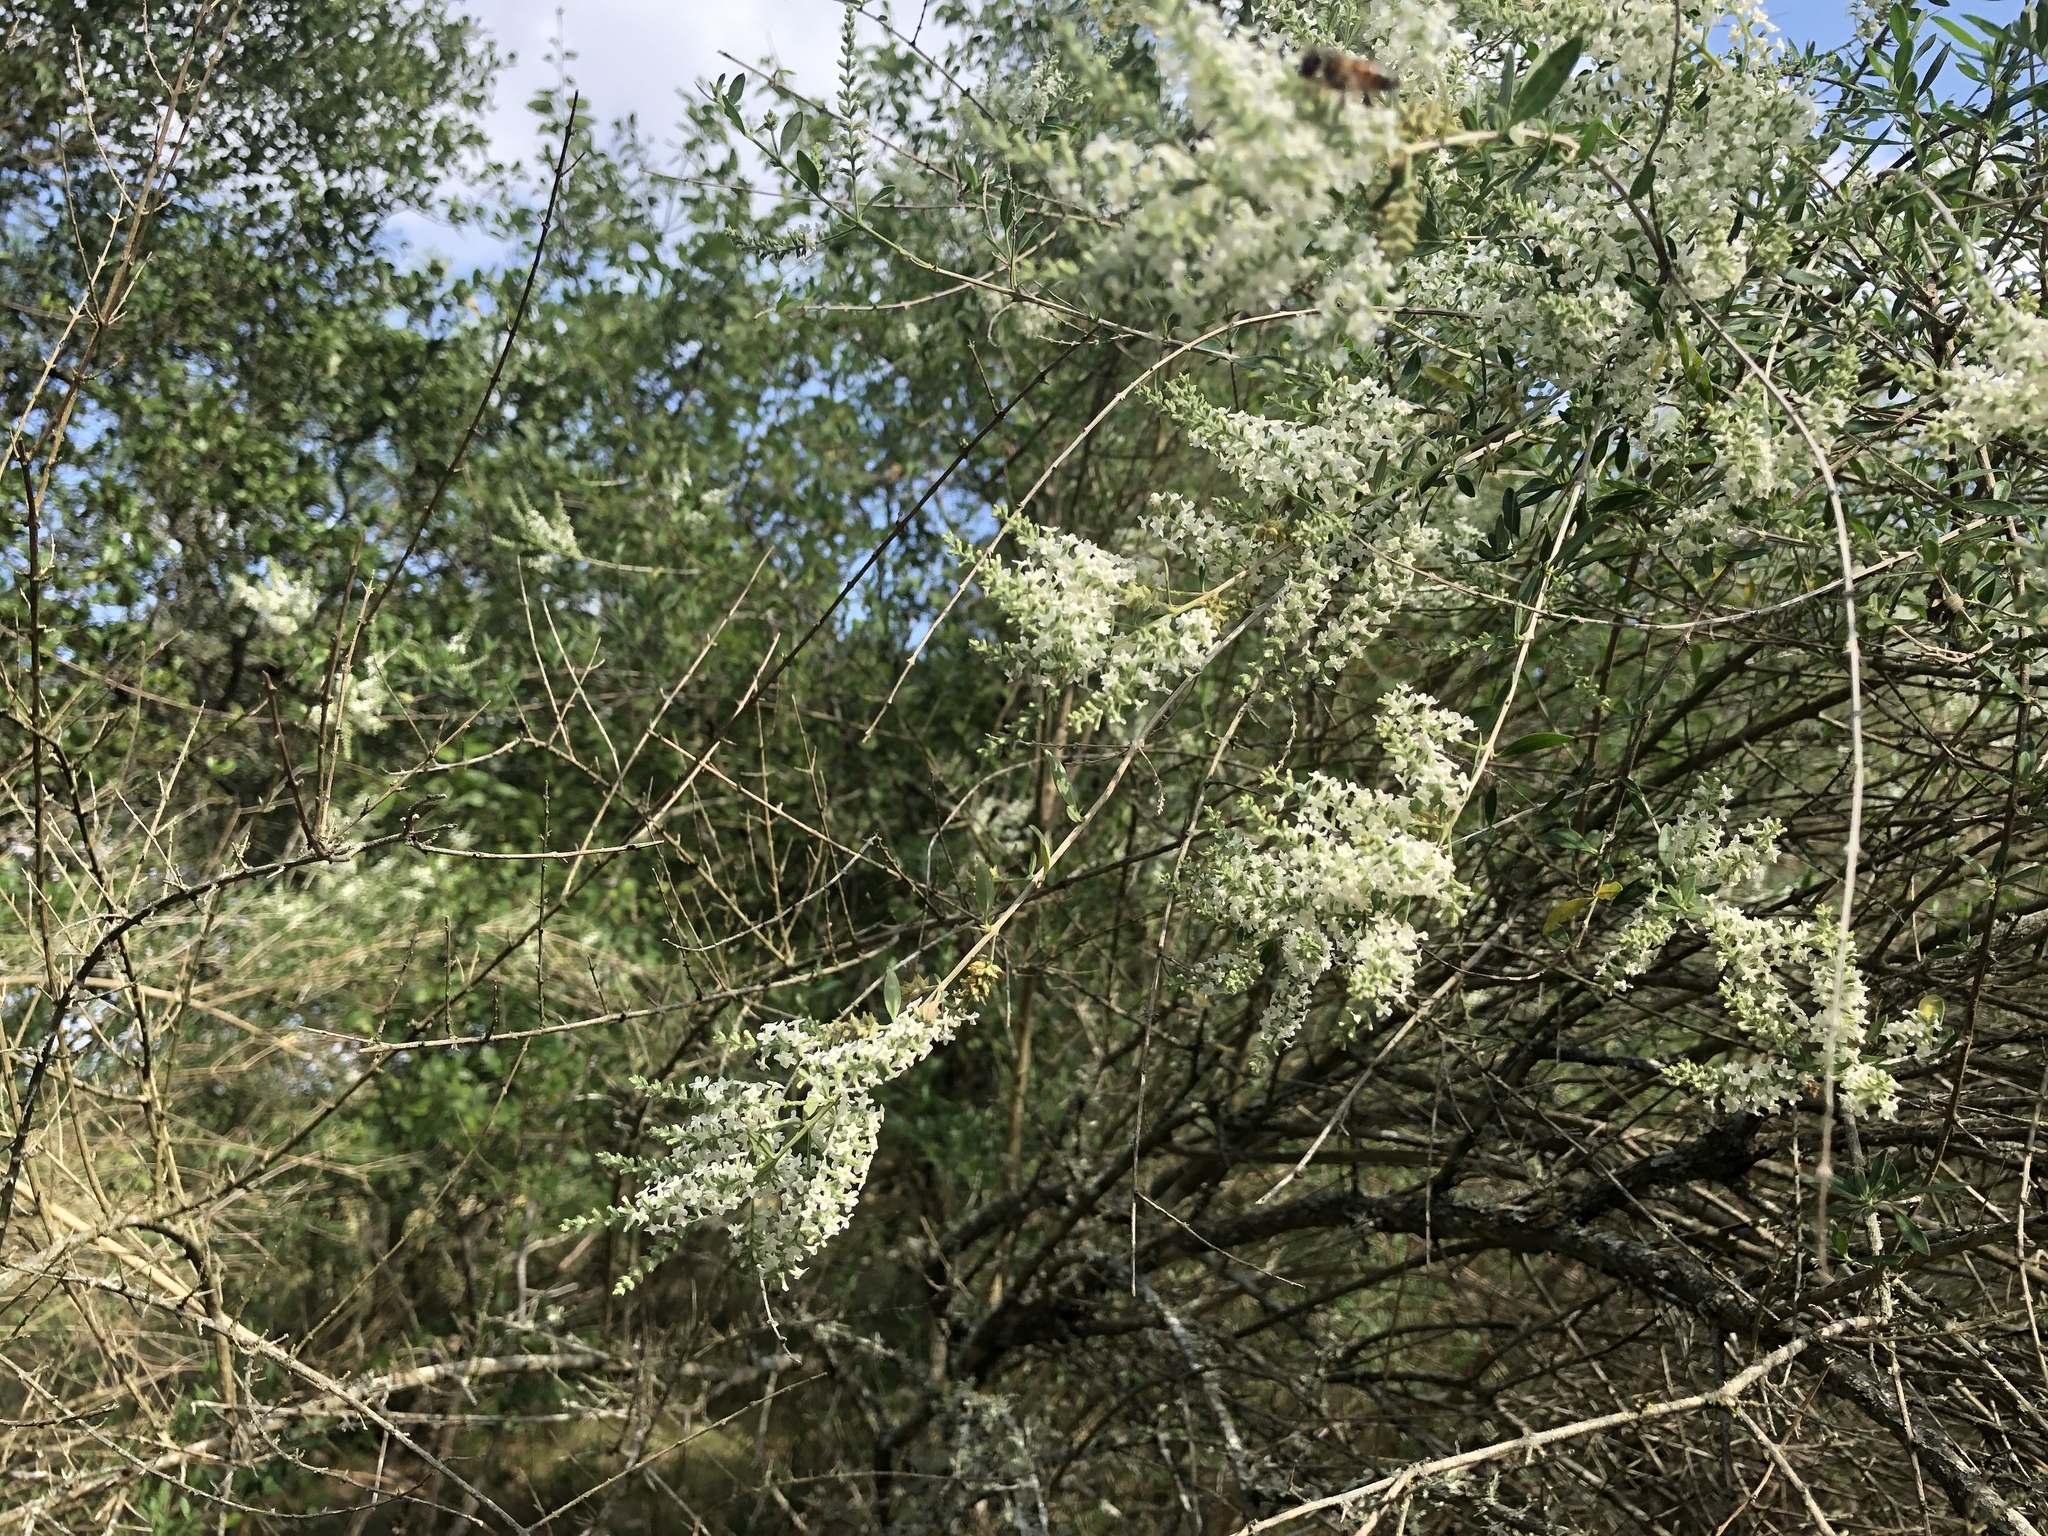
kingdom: Plantae
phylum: Tracheophyta
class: Magnoliopsida
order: Lamiales
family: Verbenaceae
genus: Aloysia
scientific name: Aloysia gratissima
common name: Common bee-brush
